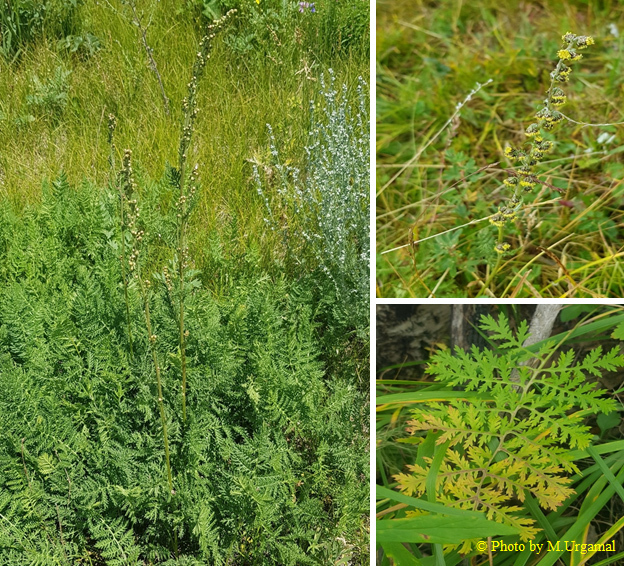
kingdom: Plantae
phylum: Tracheophyta
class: Magnoliopsida
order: Asterales
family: Asteraceae
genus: Artemisia
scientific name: Artemisia tanacetifolia
